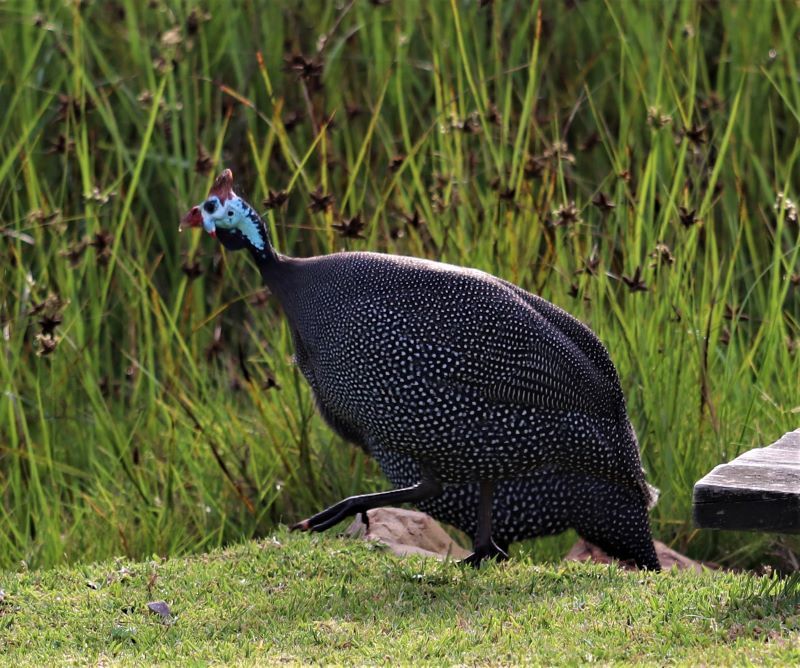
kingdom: Animalia
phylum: Chordata
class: Aves
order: Galliformes
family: Numididae
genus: Numida
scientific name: Numida meleagris
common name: Helmeted guineafowl
